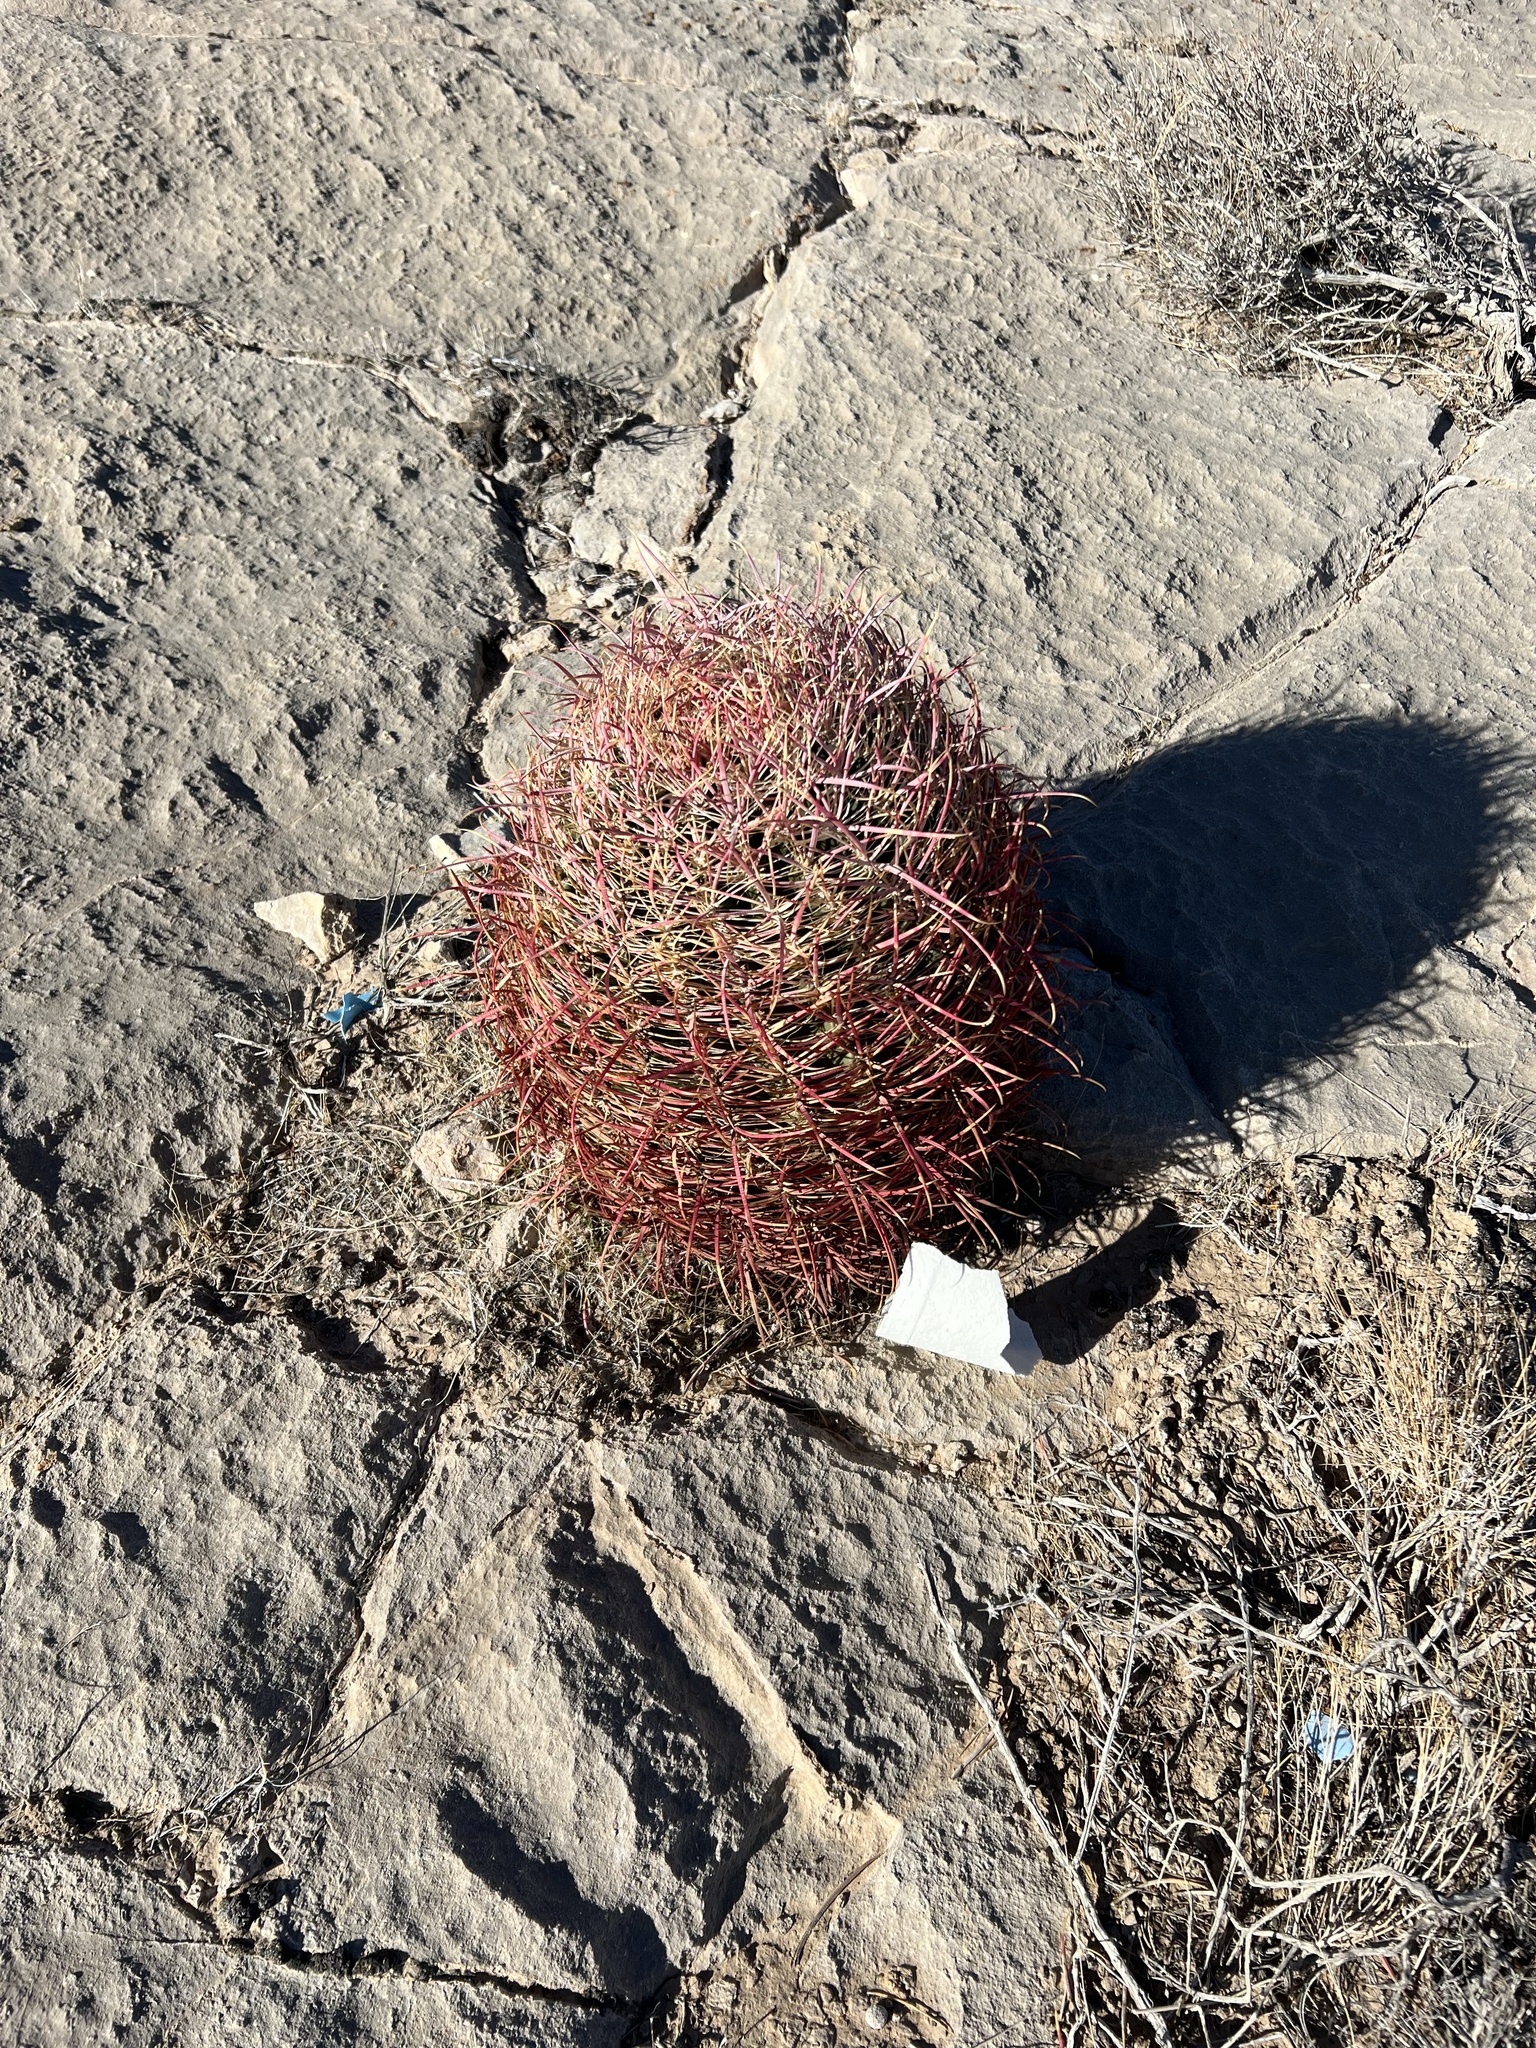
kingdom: Plantae
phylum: Tracheophyta
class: Magnoliopsida
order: Caryophyllales
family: Cactaceae
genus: Ferocactus
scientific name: Ferocactus cylindraceus
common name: California barrel cactus
